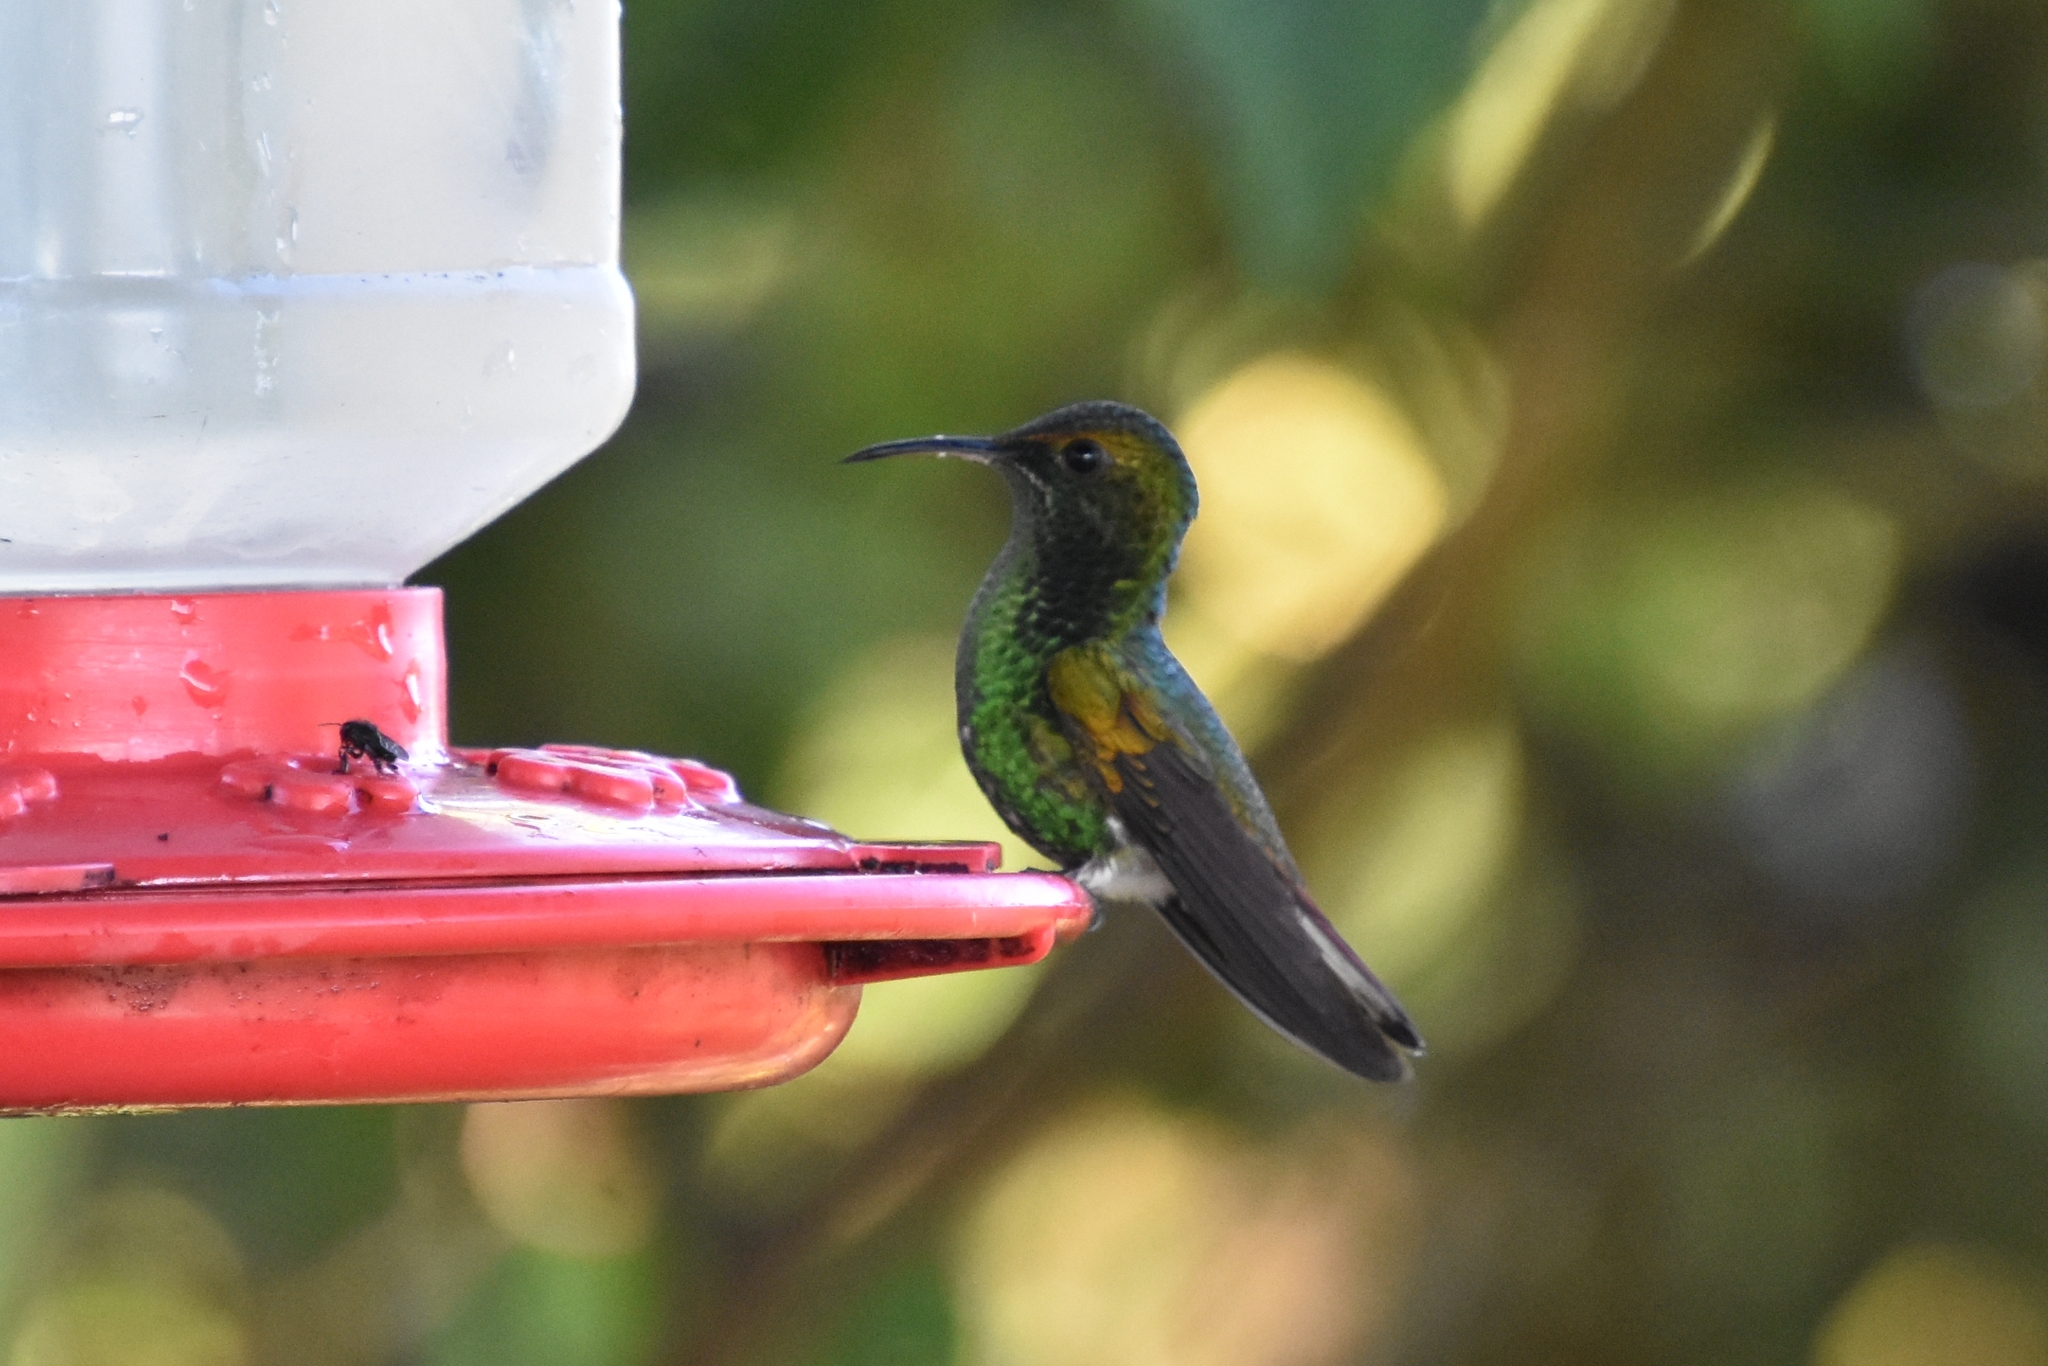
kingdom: Animalia
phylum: Chordata
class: Aves
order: Apodiformes
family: Trochilidae
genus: Microchera
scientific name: Microchera cupreiceps
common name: Coppery-headed emerald
